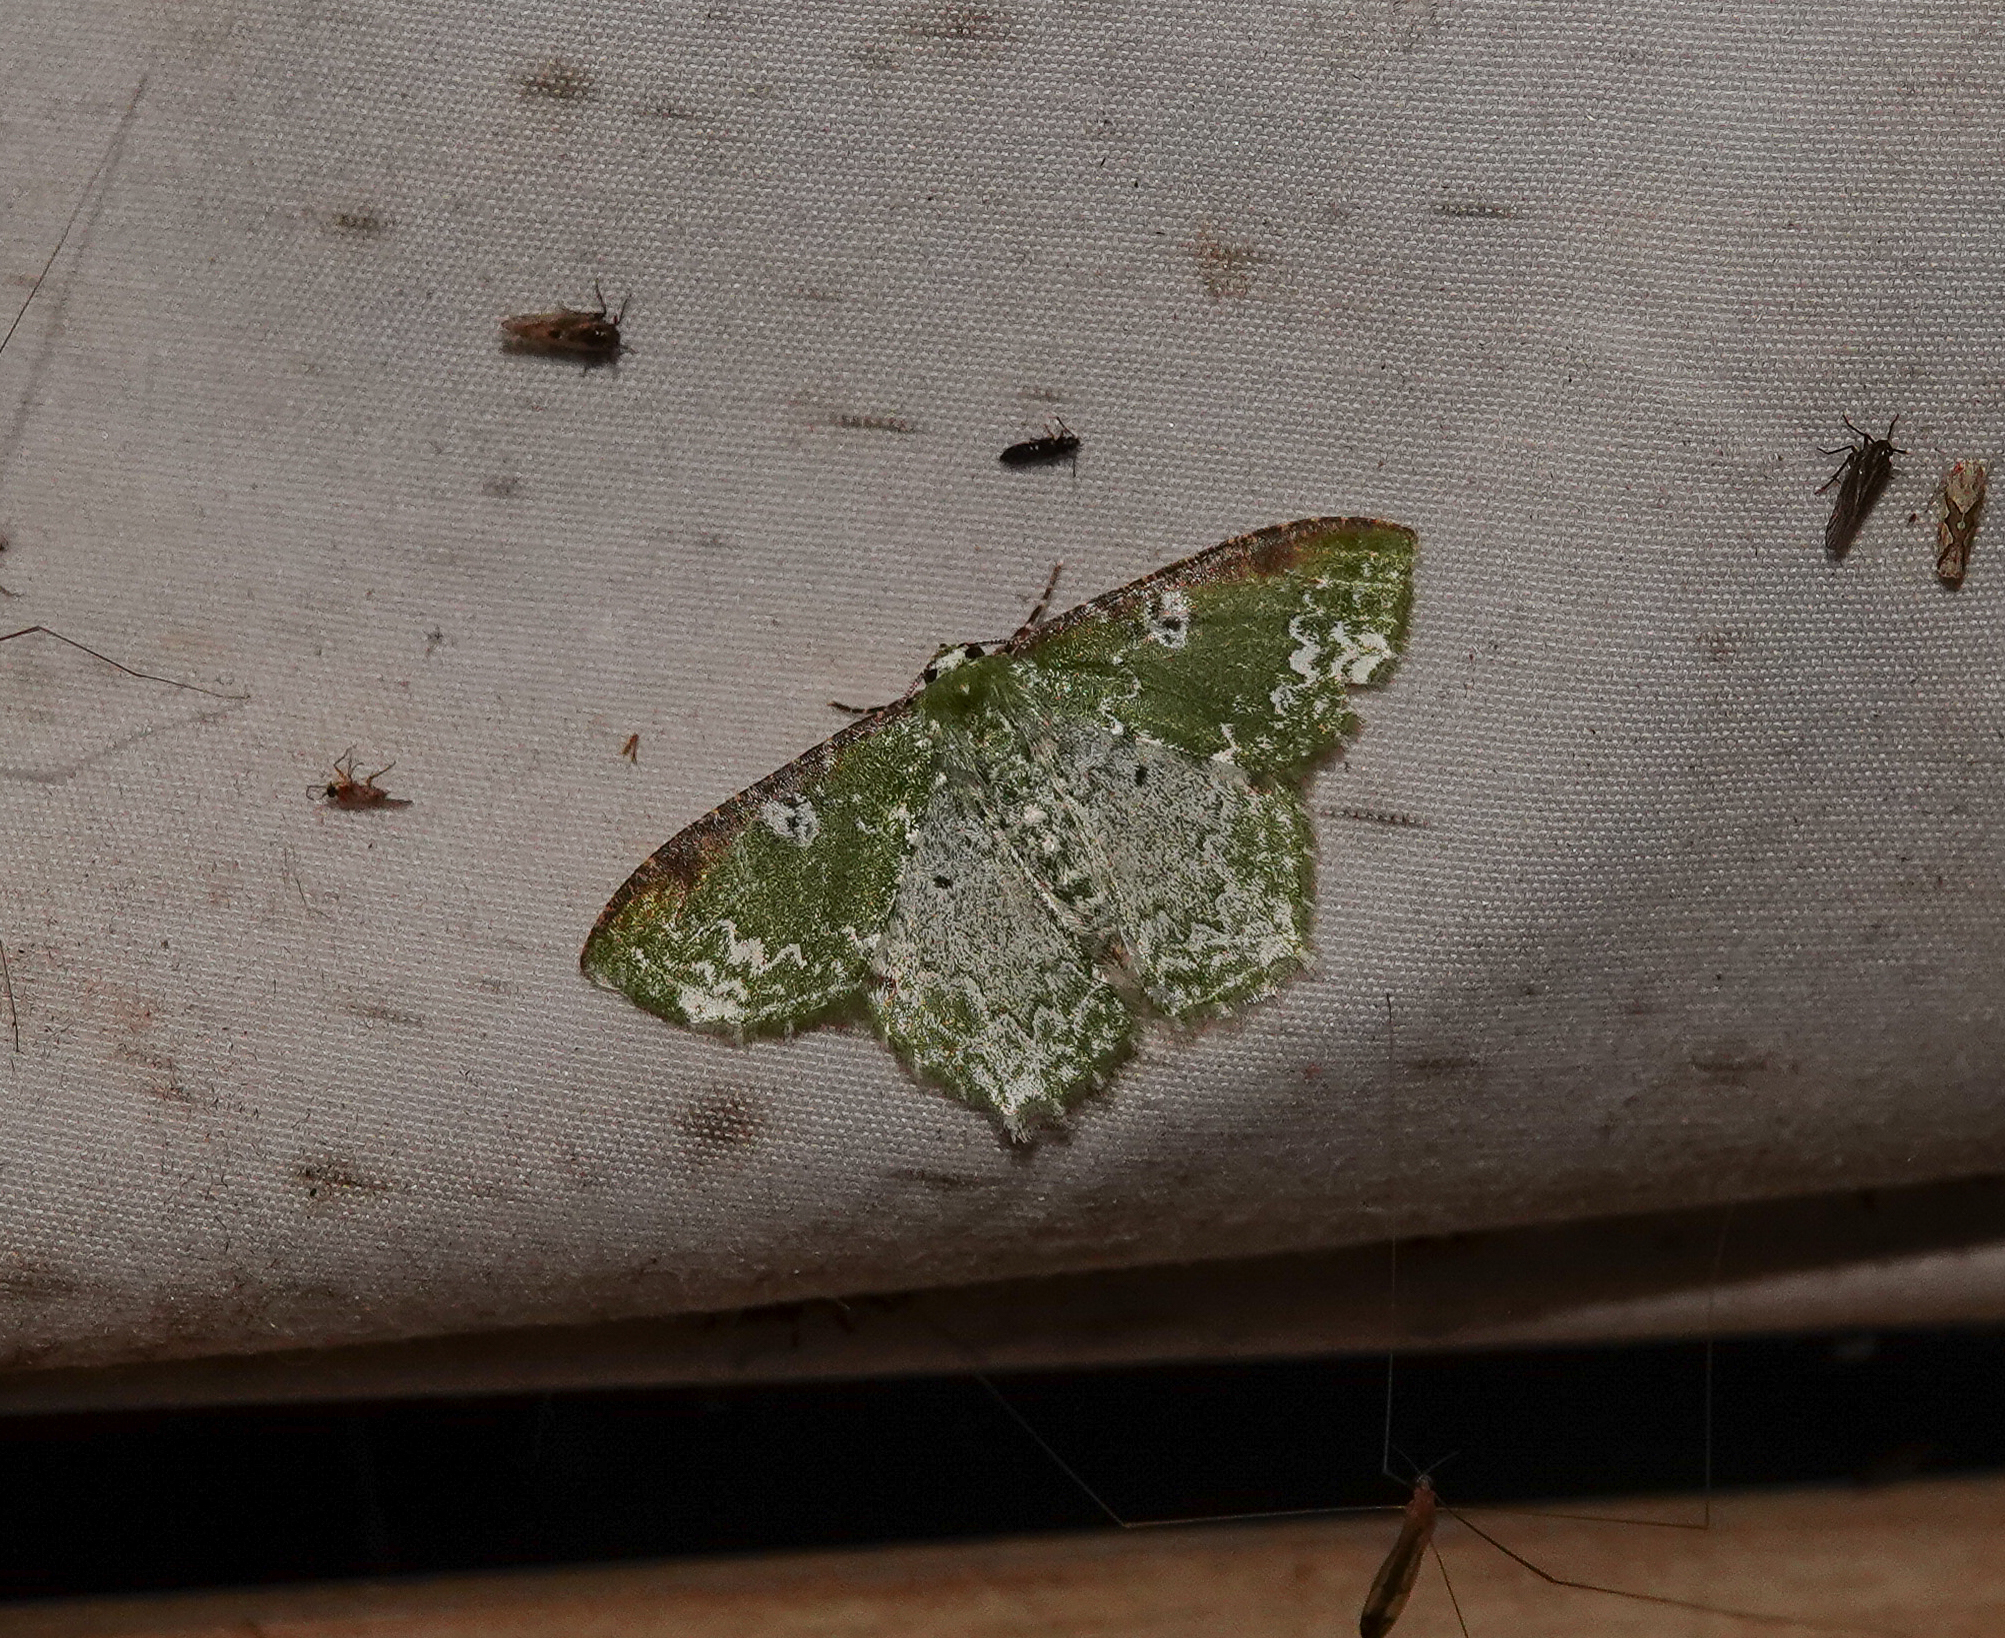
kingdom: Animalia
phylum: Arthropoda
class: Insecta
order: Lepidoptera
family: Geometridae
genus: Eucyclodes
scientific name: Eucyclodes divapala
